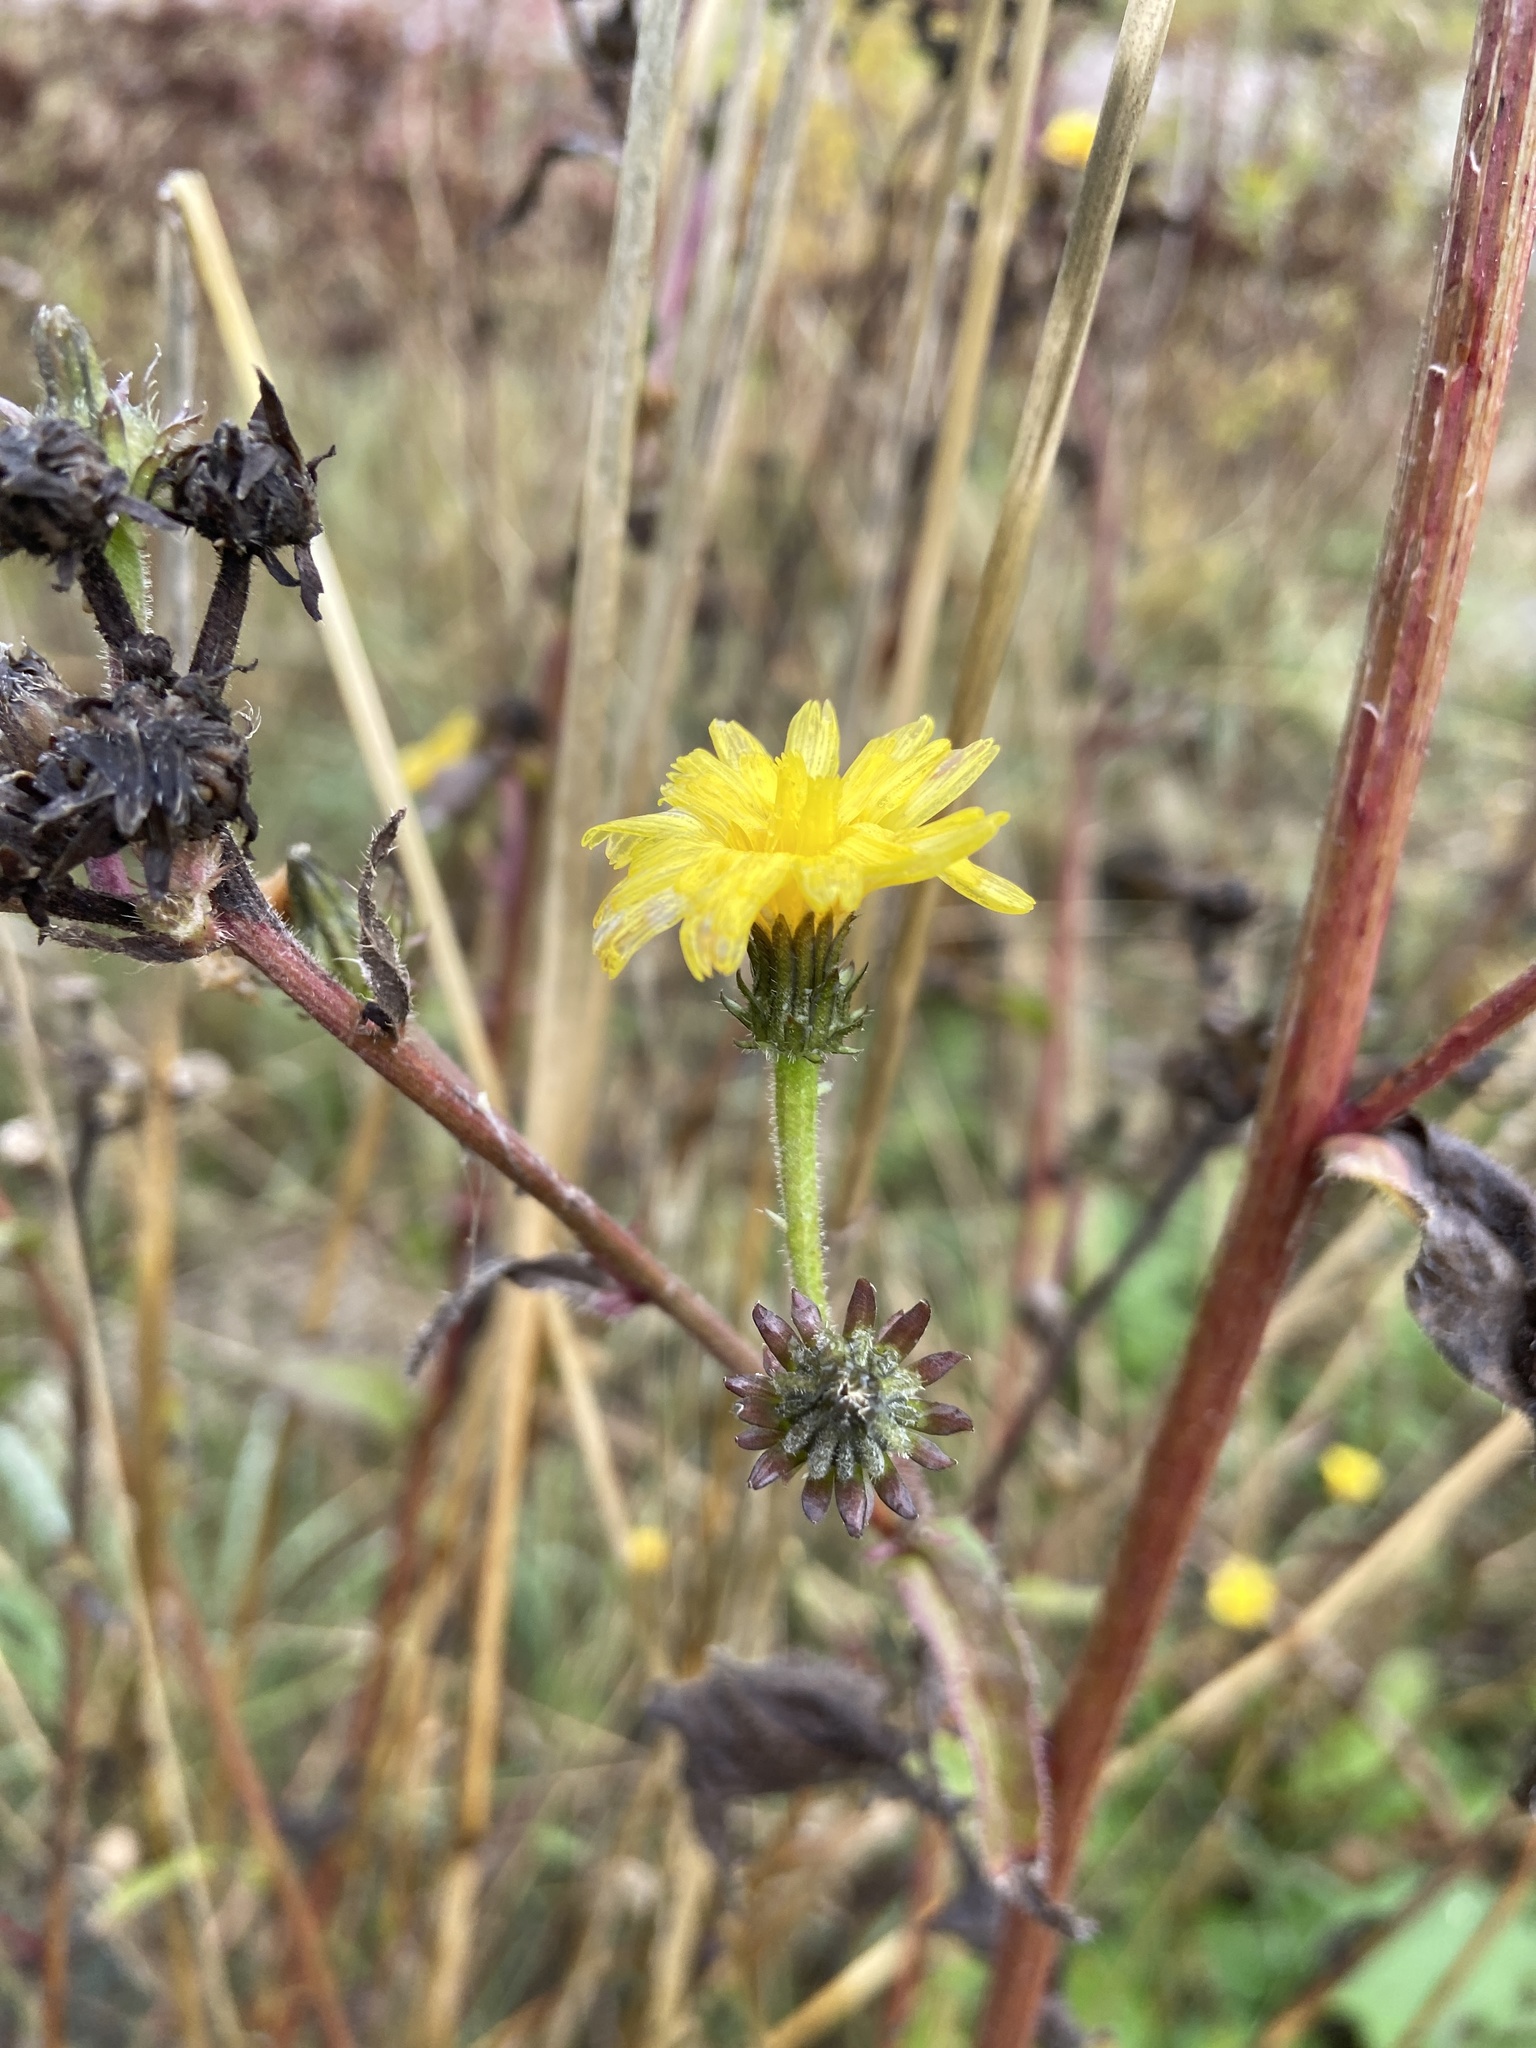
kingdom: Plantae
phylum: Tracheophyta
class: Magnoliopsida
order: Asterales
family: Asteraceae
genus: Picris
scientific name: Picris hieracioides
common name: Hawkweed oxtongue
